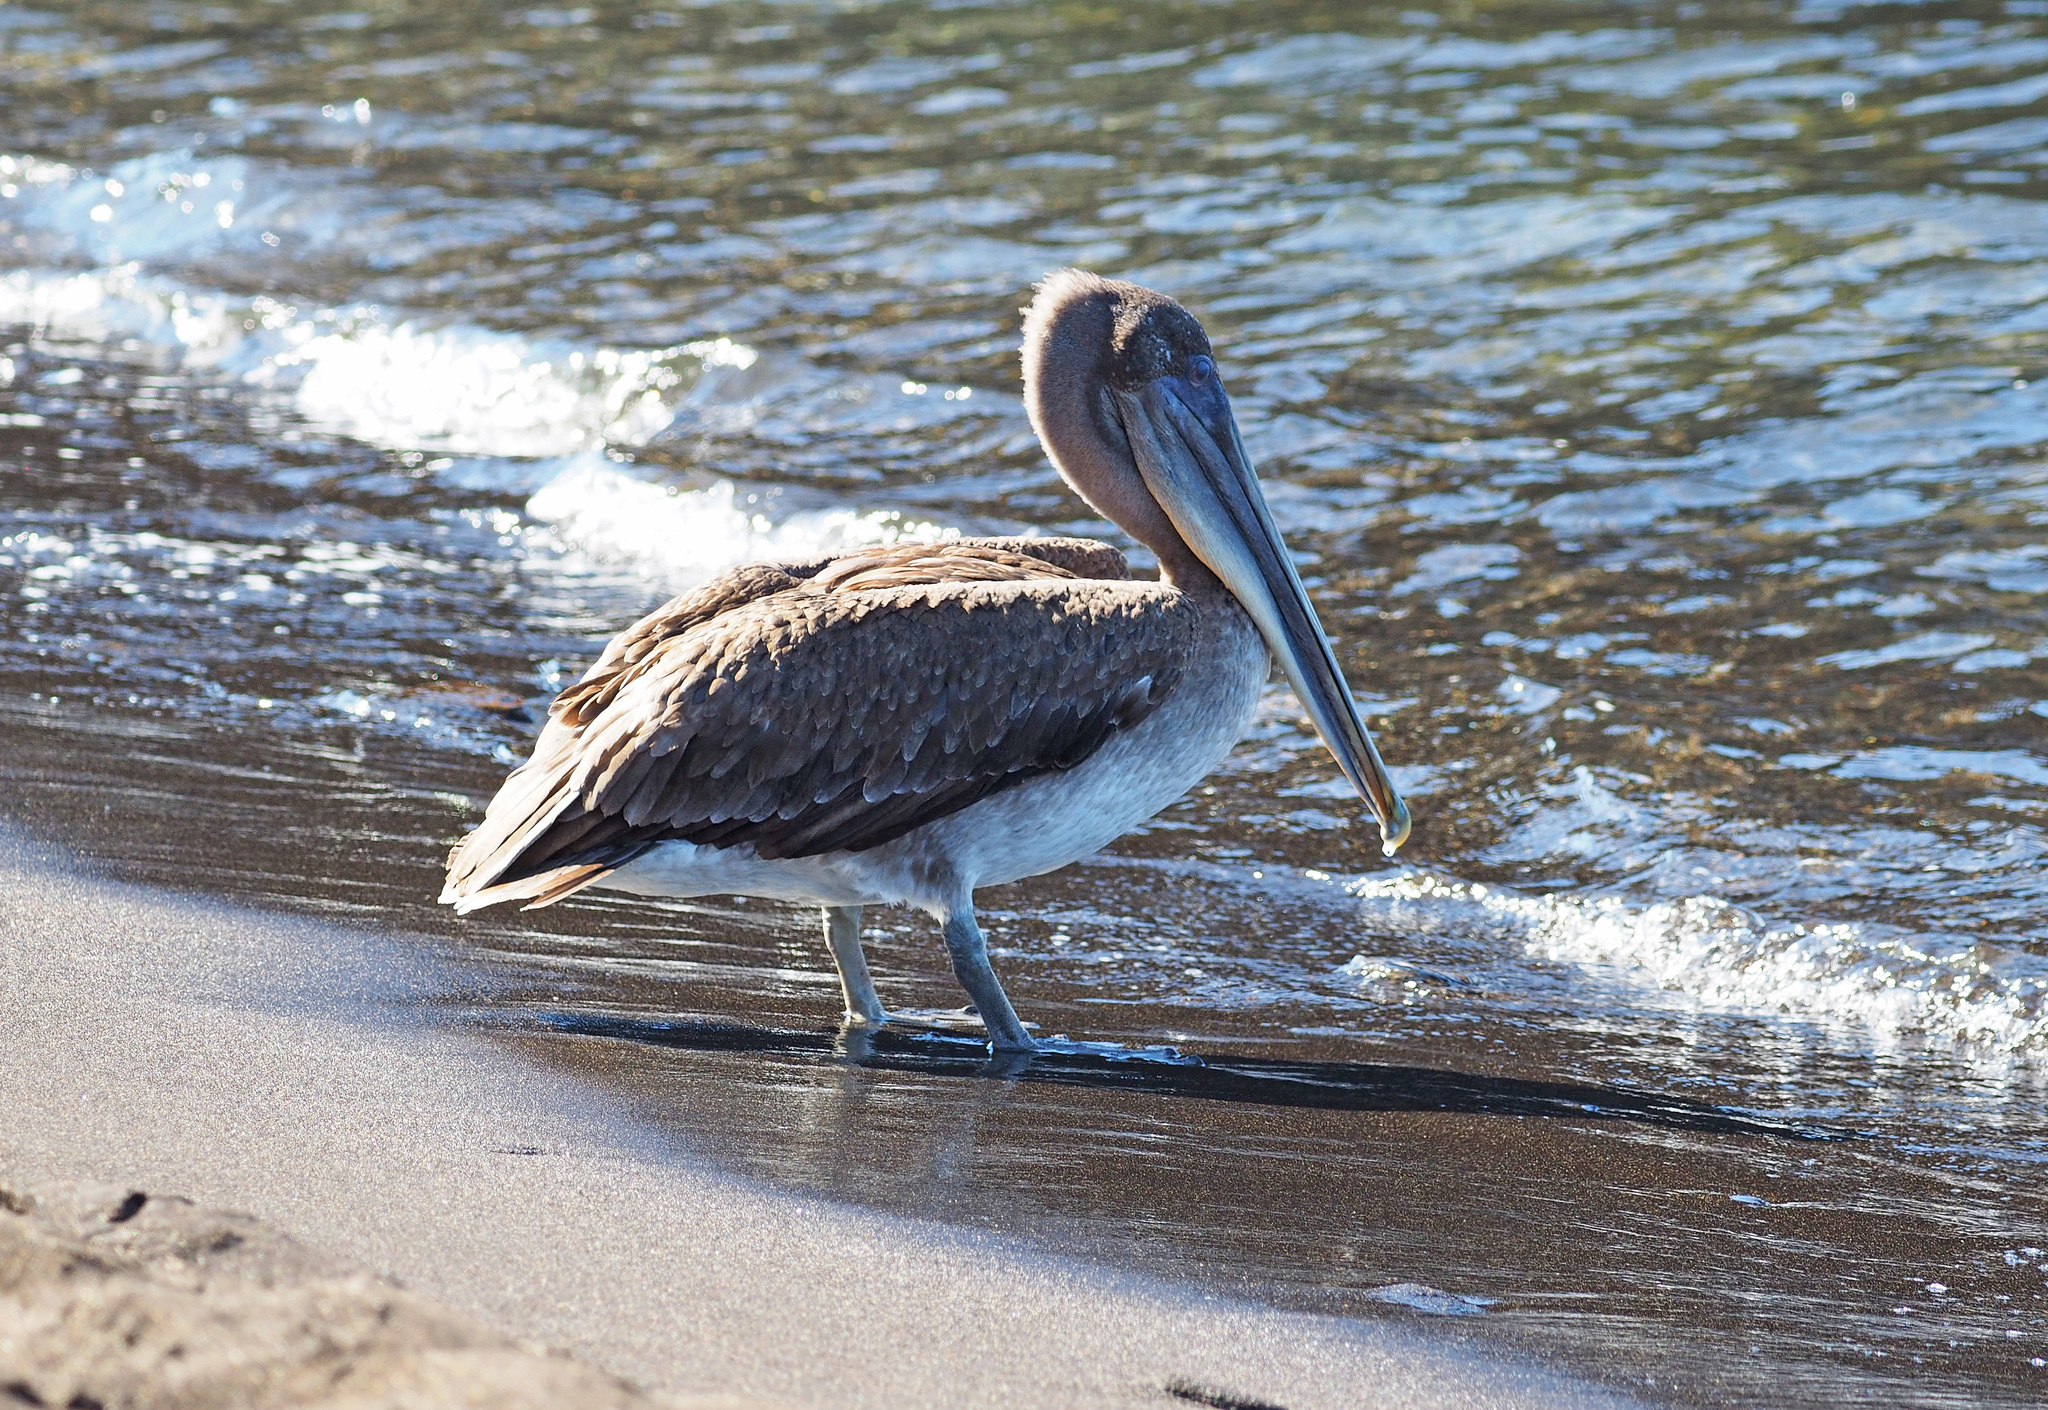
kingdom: Animalia
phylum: Chordata
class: Aves
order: Pelecaniformes
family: Pelecanidae
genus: Pelecanus
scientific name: Pelecanus occidentalis
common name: Brown pelican
